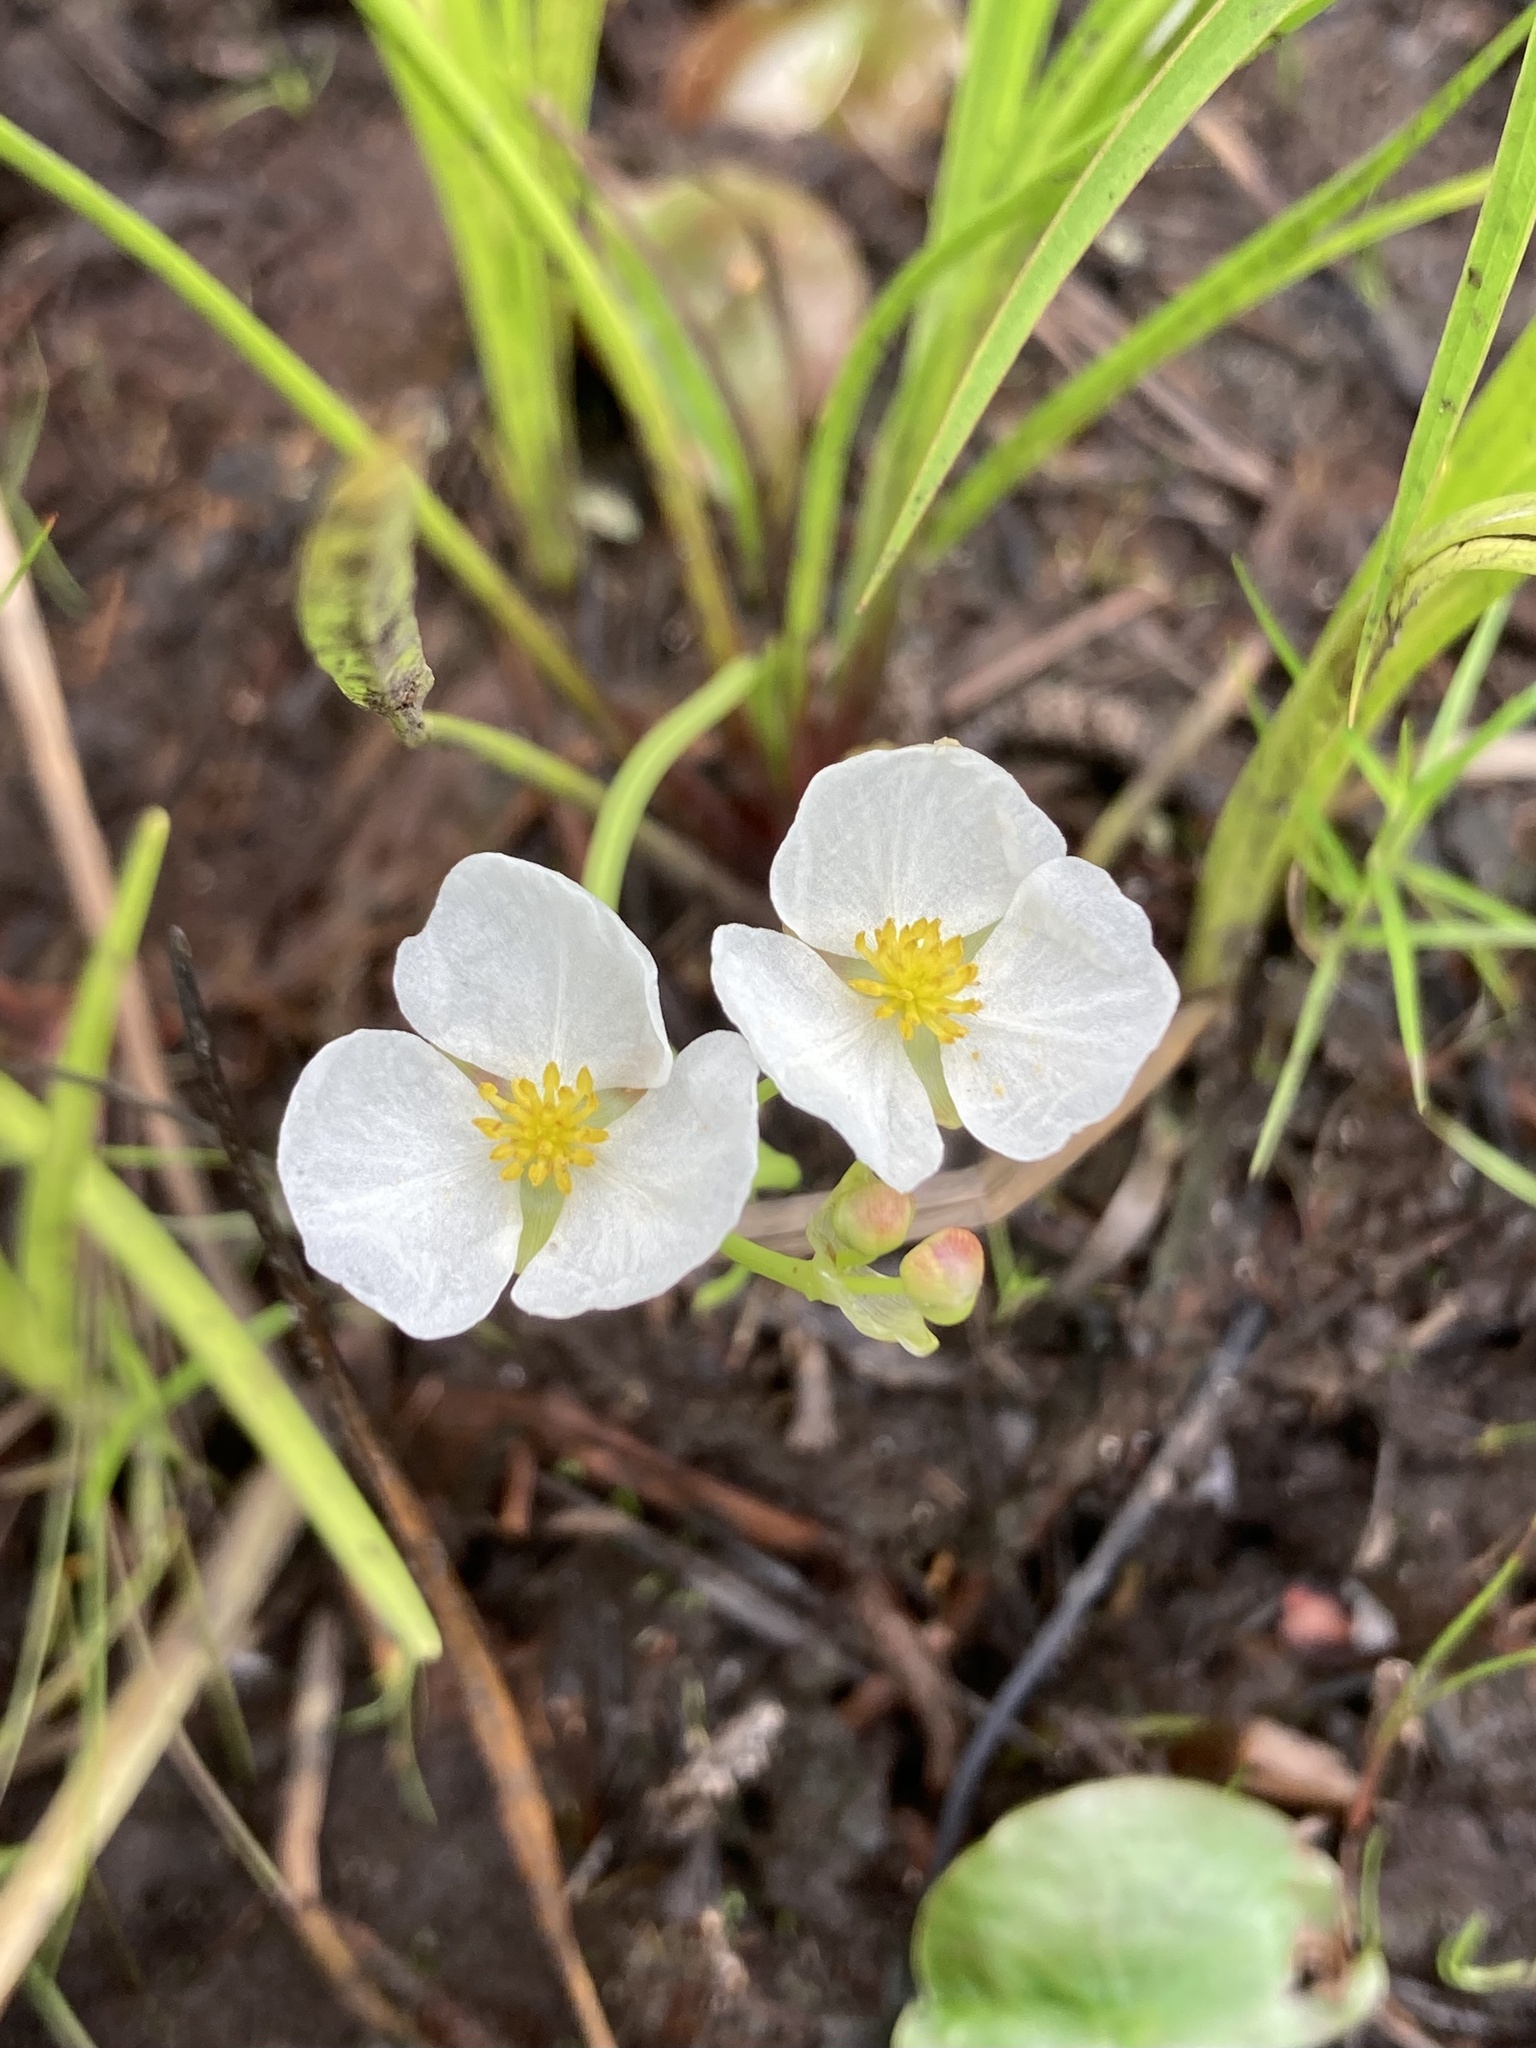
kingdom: Plantae
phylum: Tracheophyta
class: Liliopsida
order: Alismatales
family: Alismataceae
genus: Sagittaria
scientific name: Sagittaria engelmanniana
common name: Acid-water arrowhead
